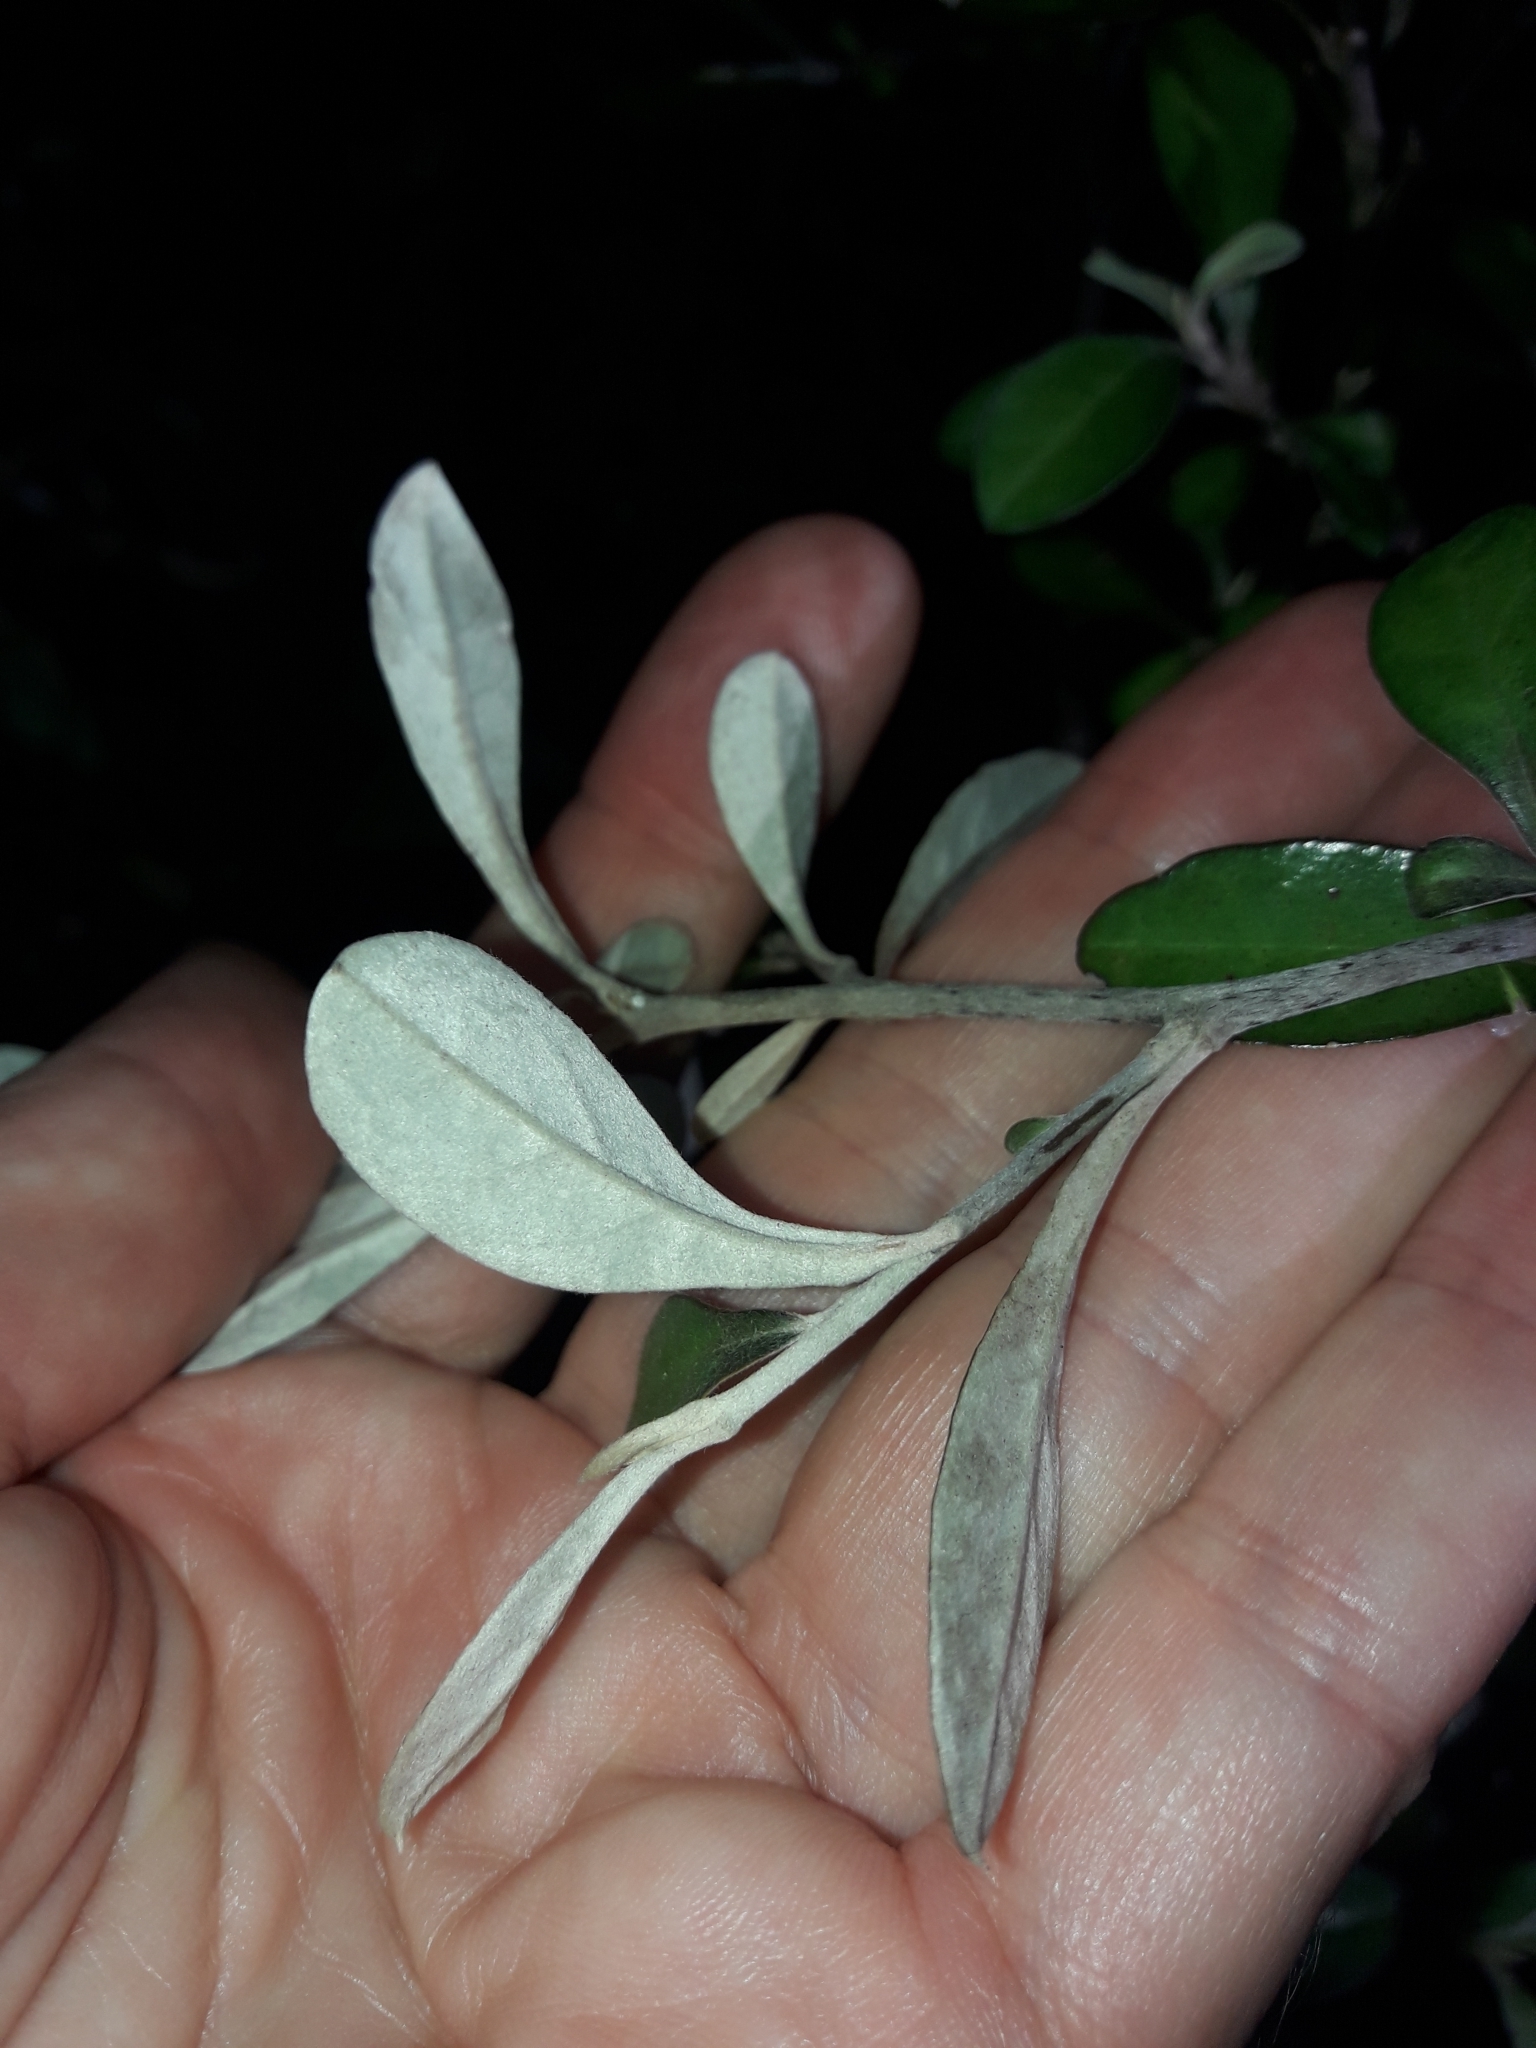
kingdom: Plantae
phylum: Tracheophyta
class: Magnoliopsida
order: Asterales
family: Argophyllaceae
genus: Corokia
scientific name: Corokia cotoneaster
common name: Wire nettingbush
